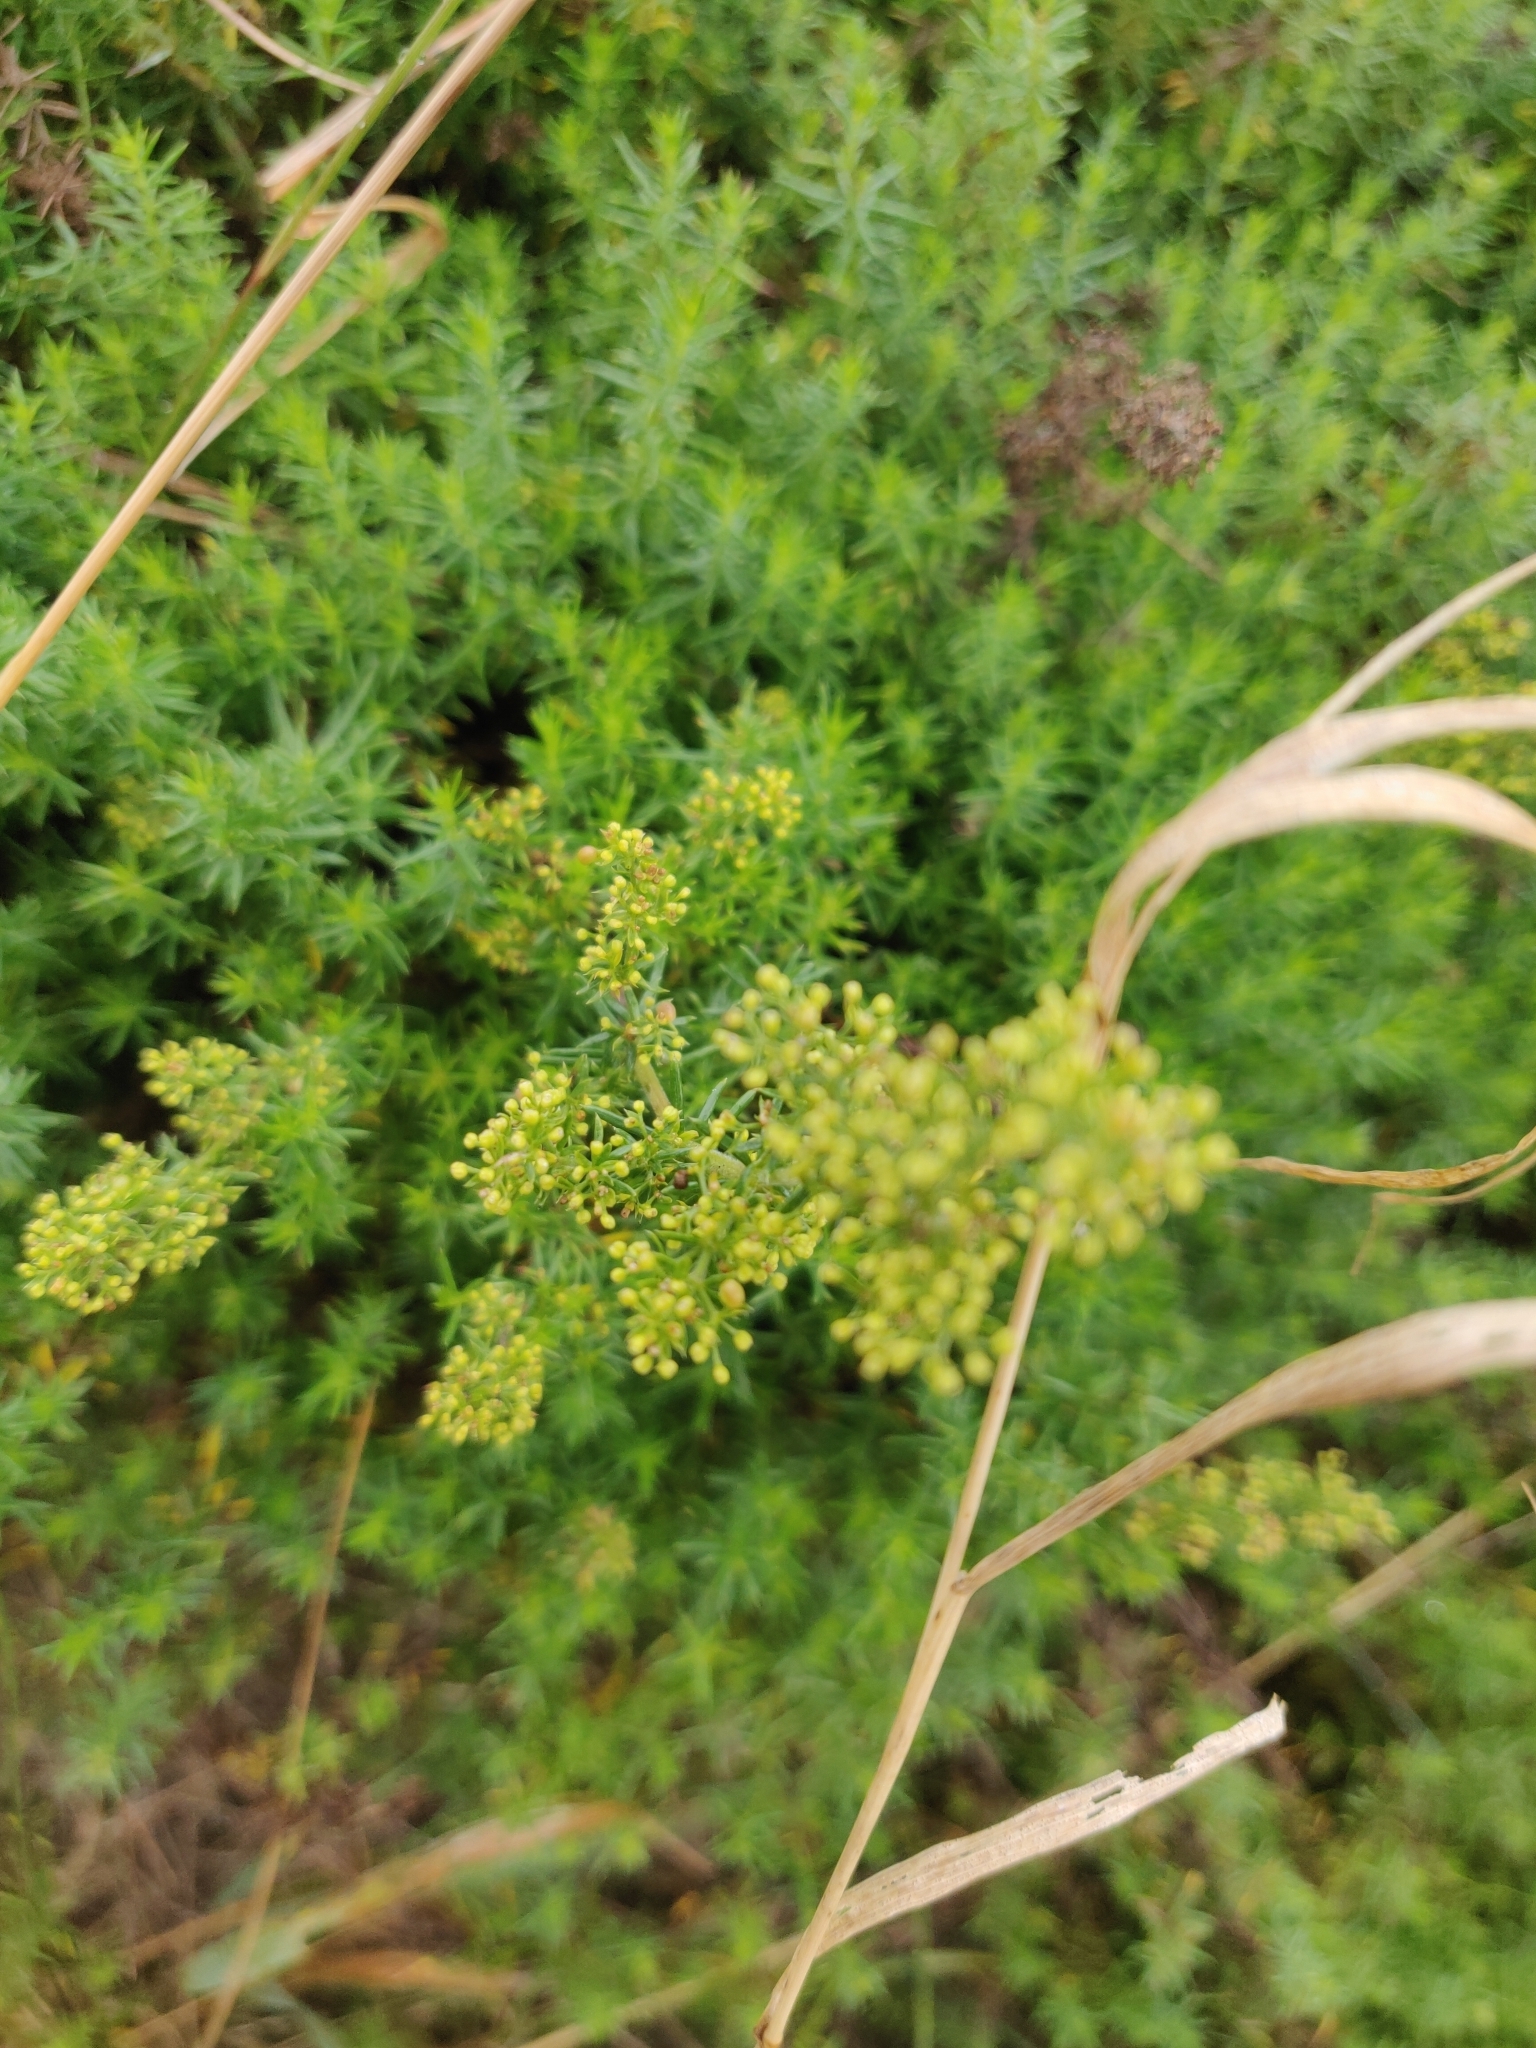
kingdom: Plantae
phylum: Tracheophyta
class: Magnoliopsida
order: Gentianales
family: Rubiaceae
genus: Galium
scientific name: Galium verum
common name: Lady's bedstraw
